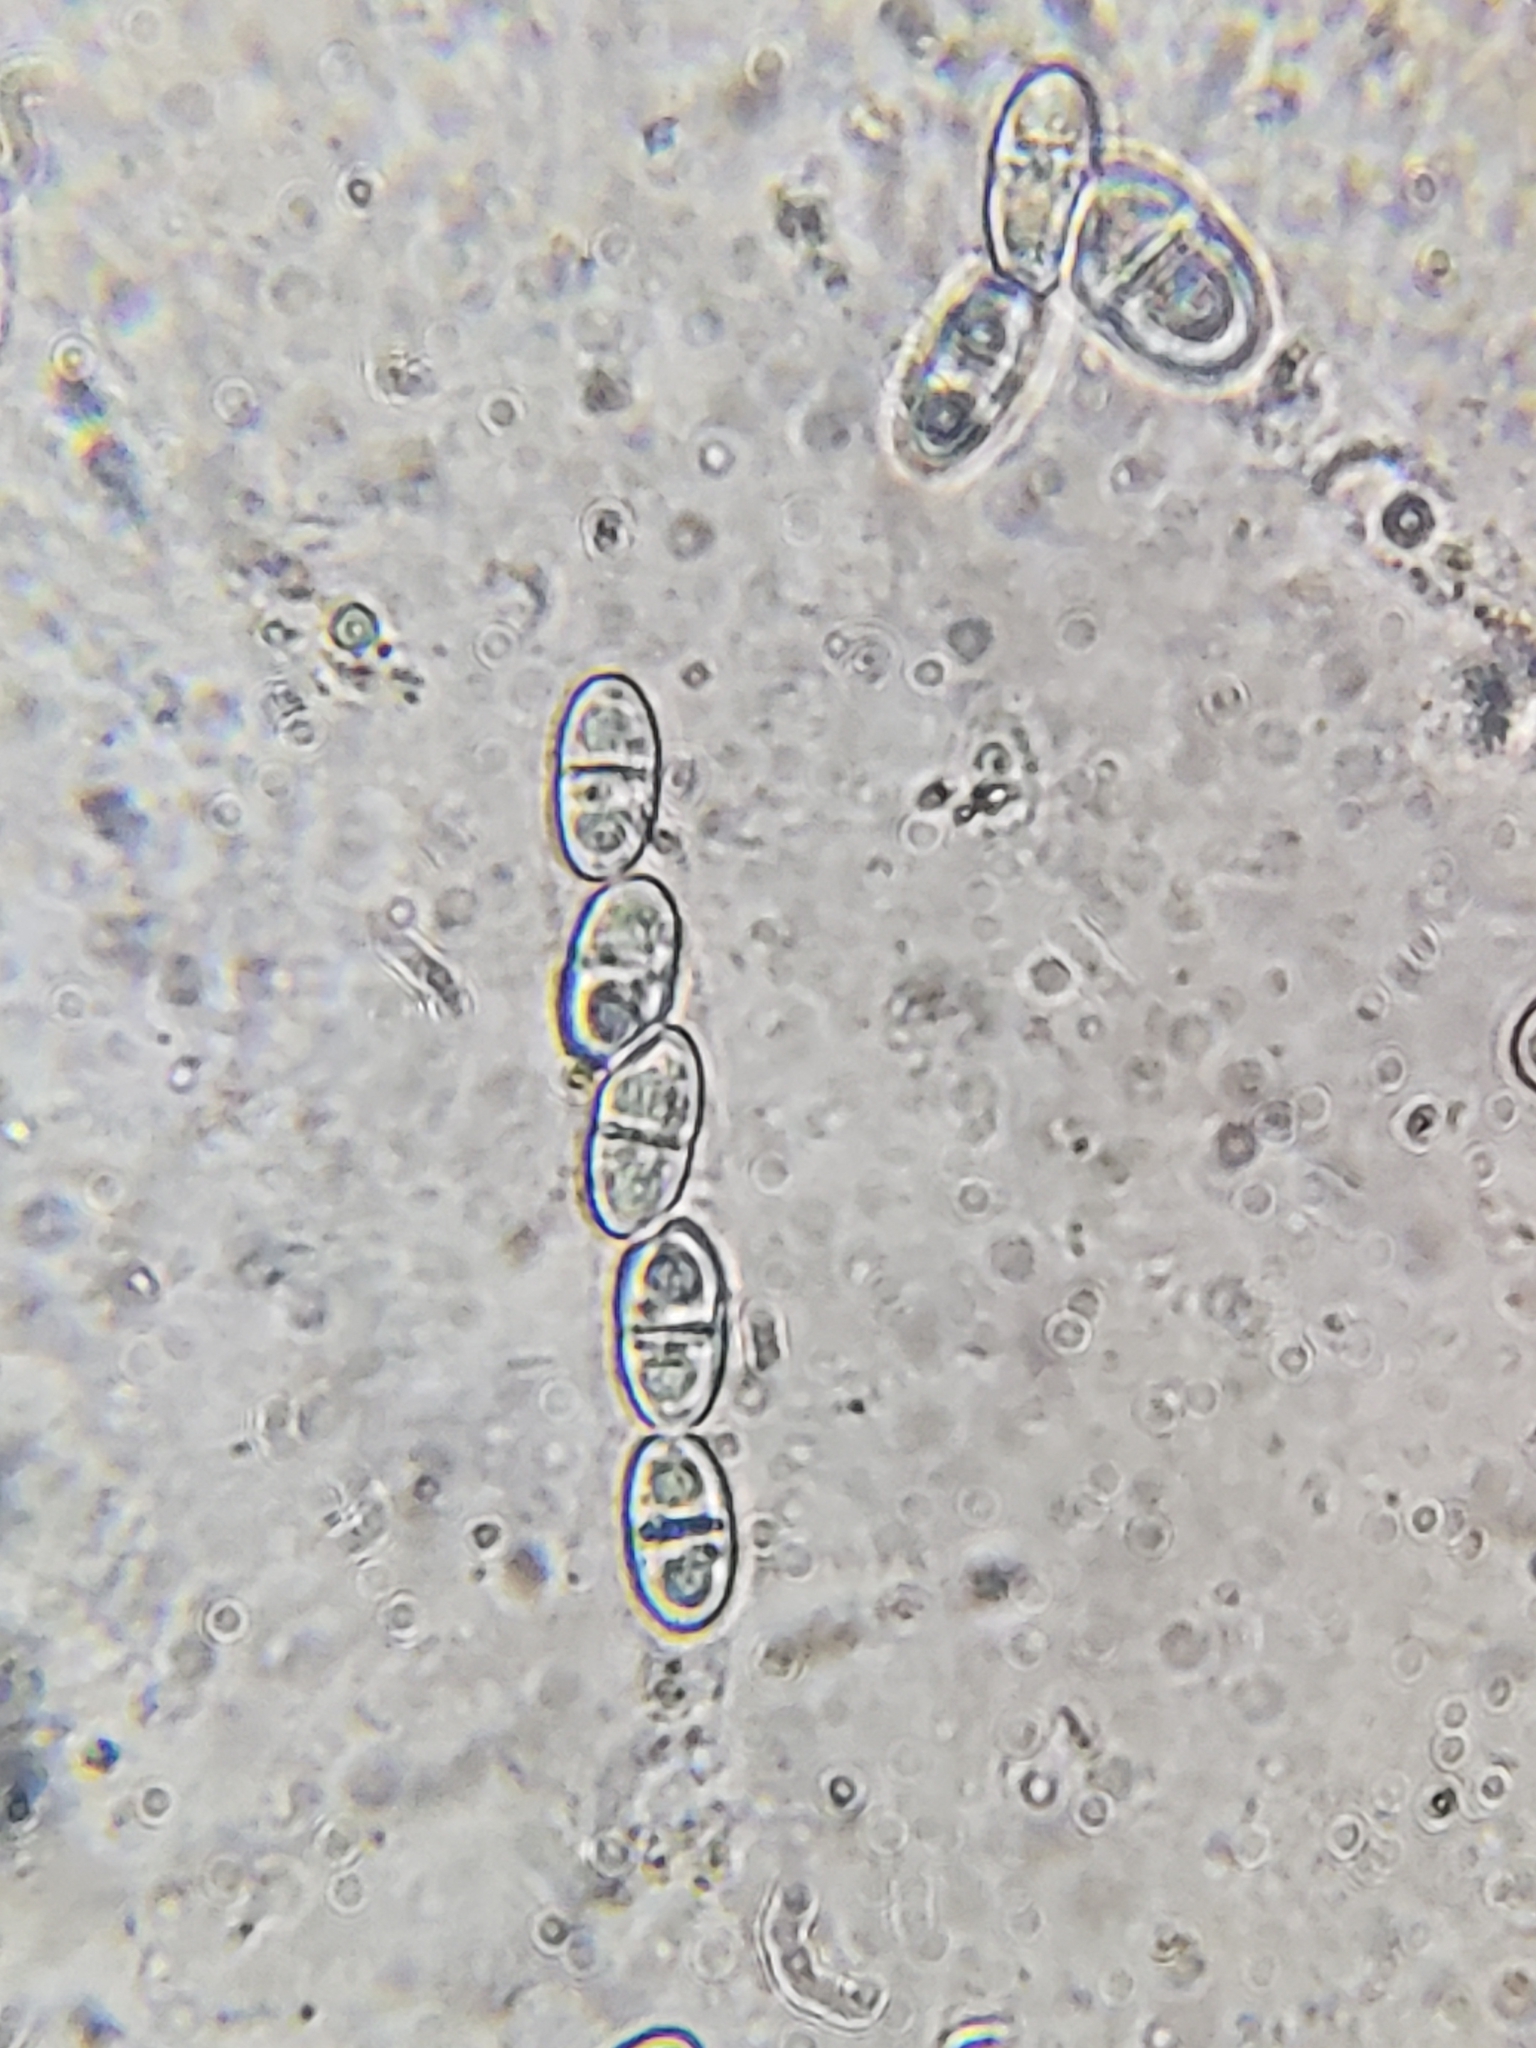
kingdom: Fungi
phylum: Ascomycota
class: Sordariomycetes
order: Hypocreales
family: Nectriaceae
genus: Hydropisphaera
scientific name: Hydropisphaera peziza
